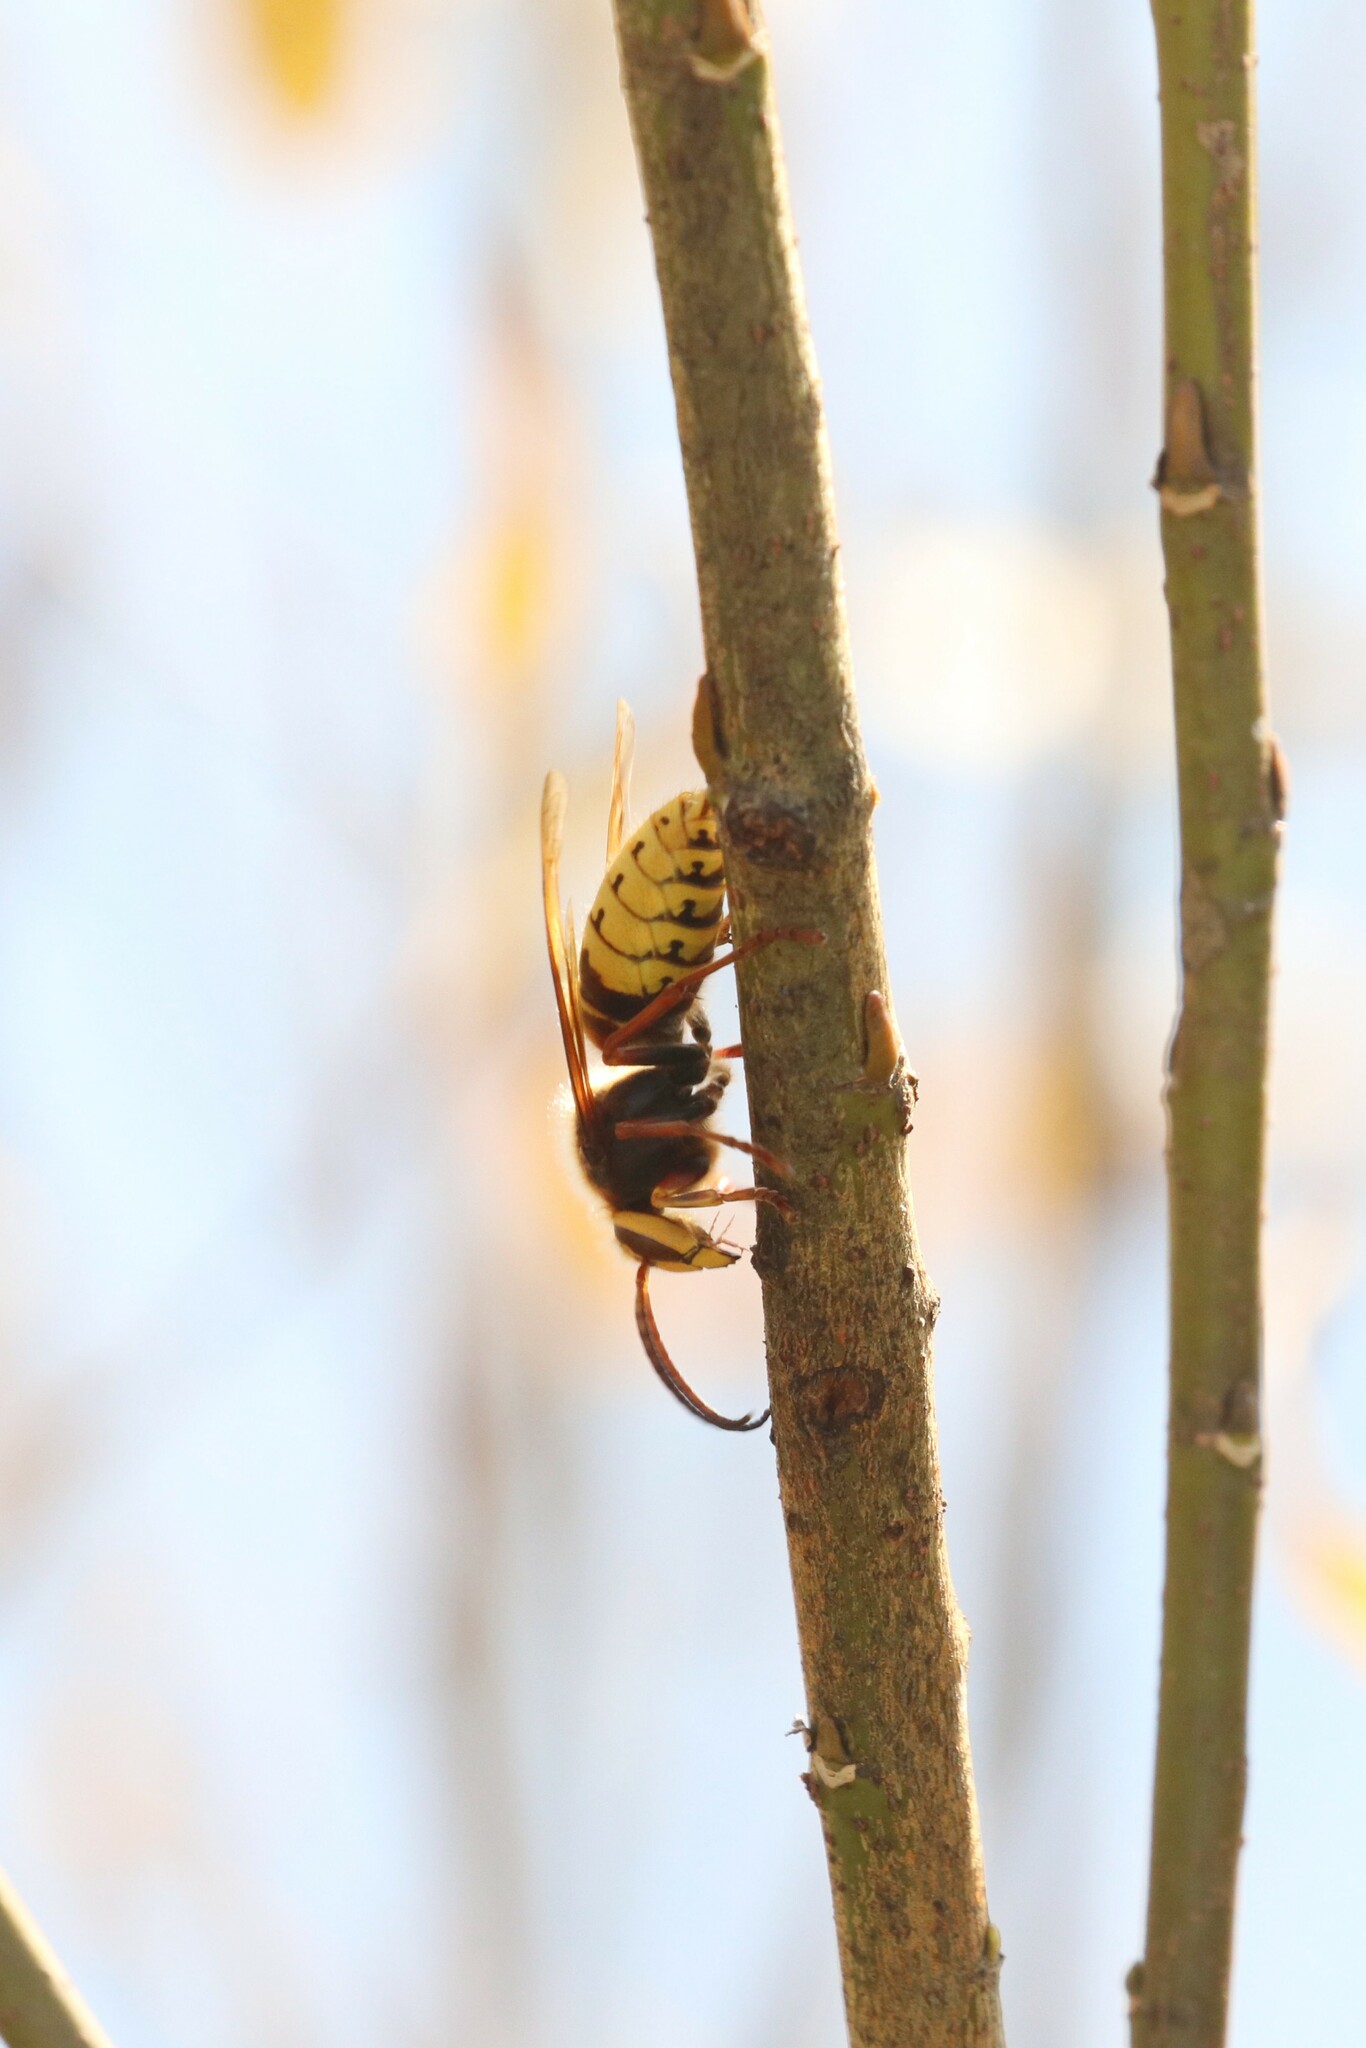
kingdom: Animalia
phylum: Arthropoda
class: Insecta
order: Hymenoptera
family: Vespidae
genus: Vespa
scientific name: Vespa crabro
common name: Hornet
